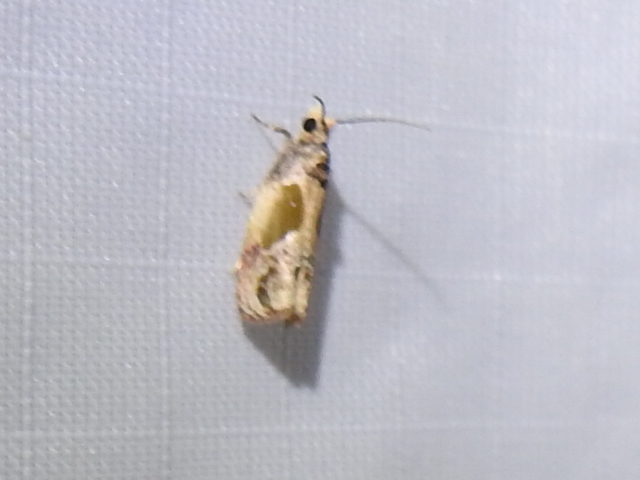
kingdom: Animalia
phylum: Arthropoda
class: Insecta
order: Lepidoptera
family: Tortricidae
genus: Eumarozia
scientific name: Eumarozia malachitana
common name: Sculptured moth
